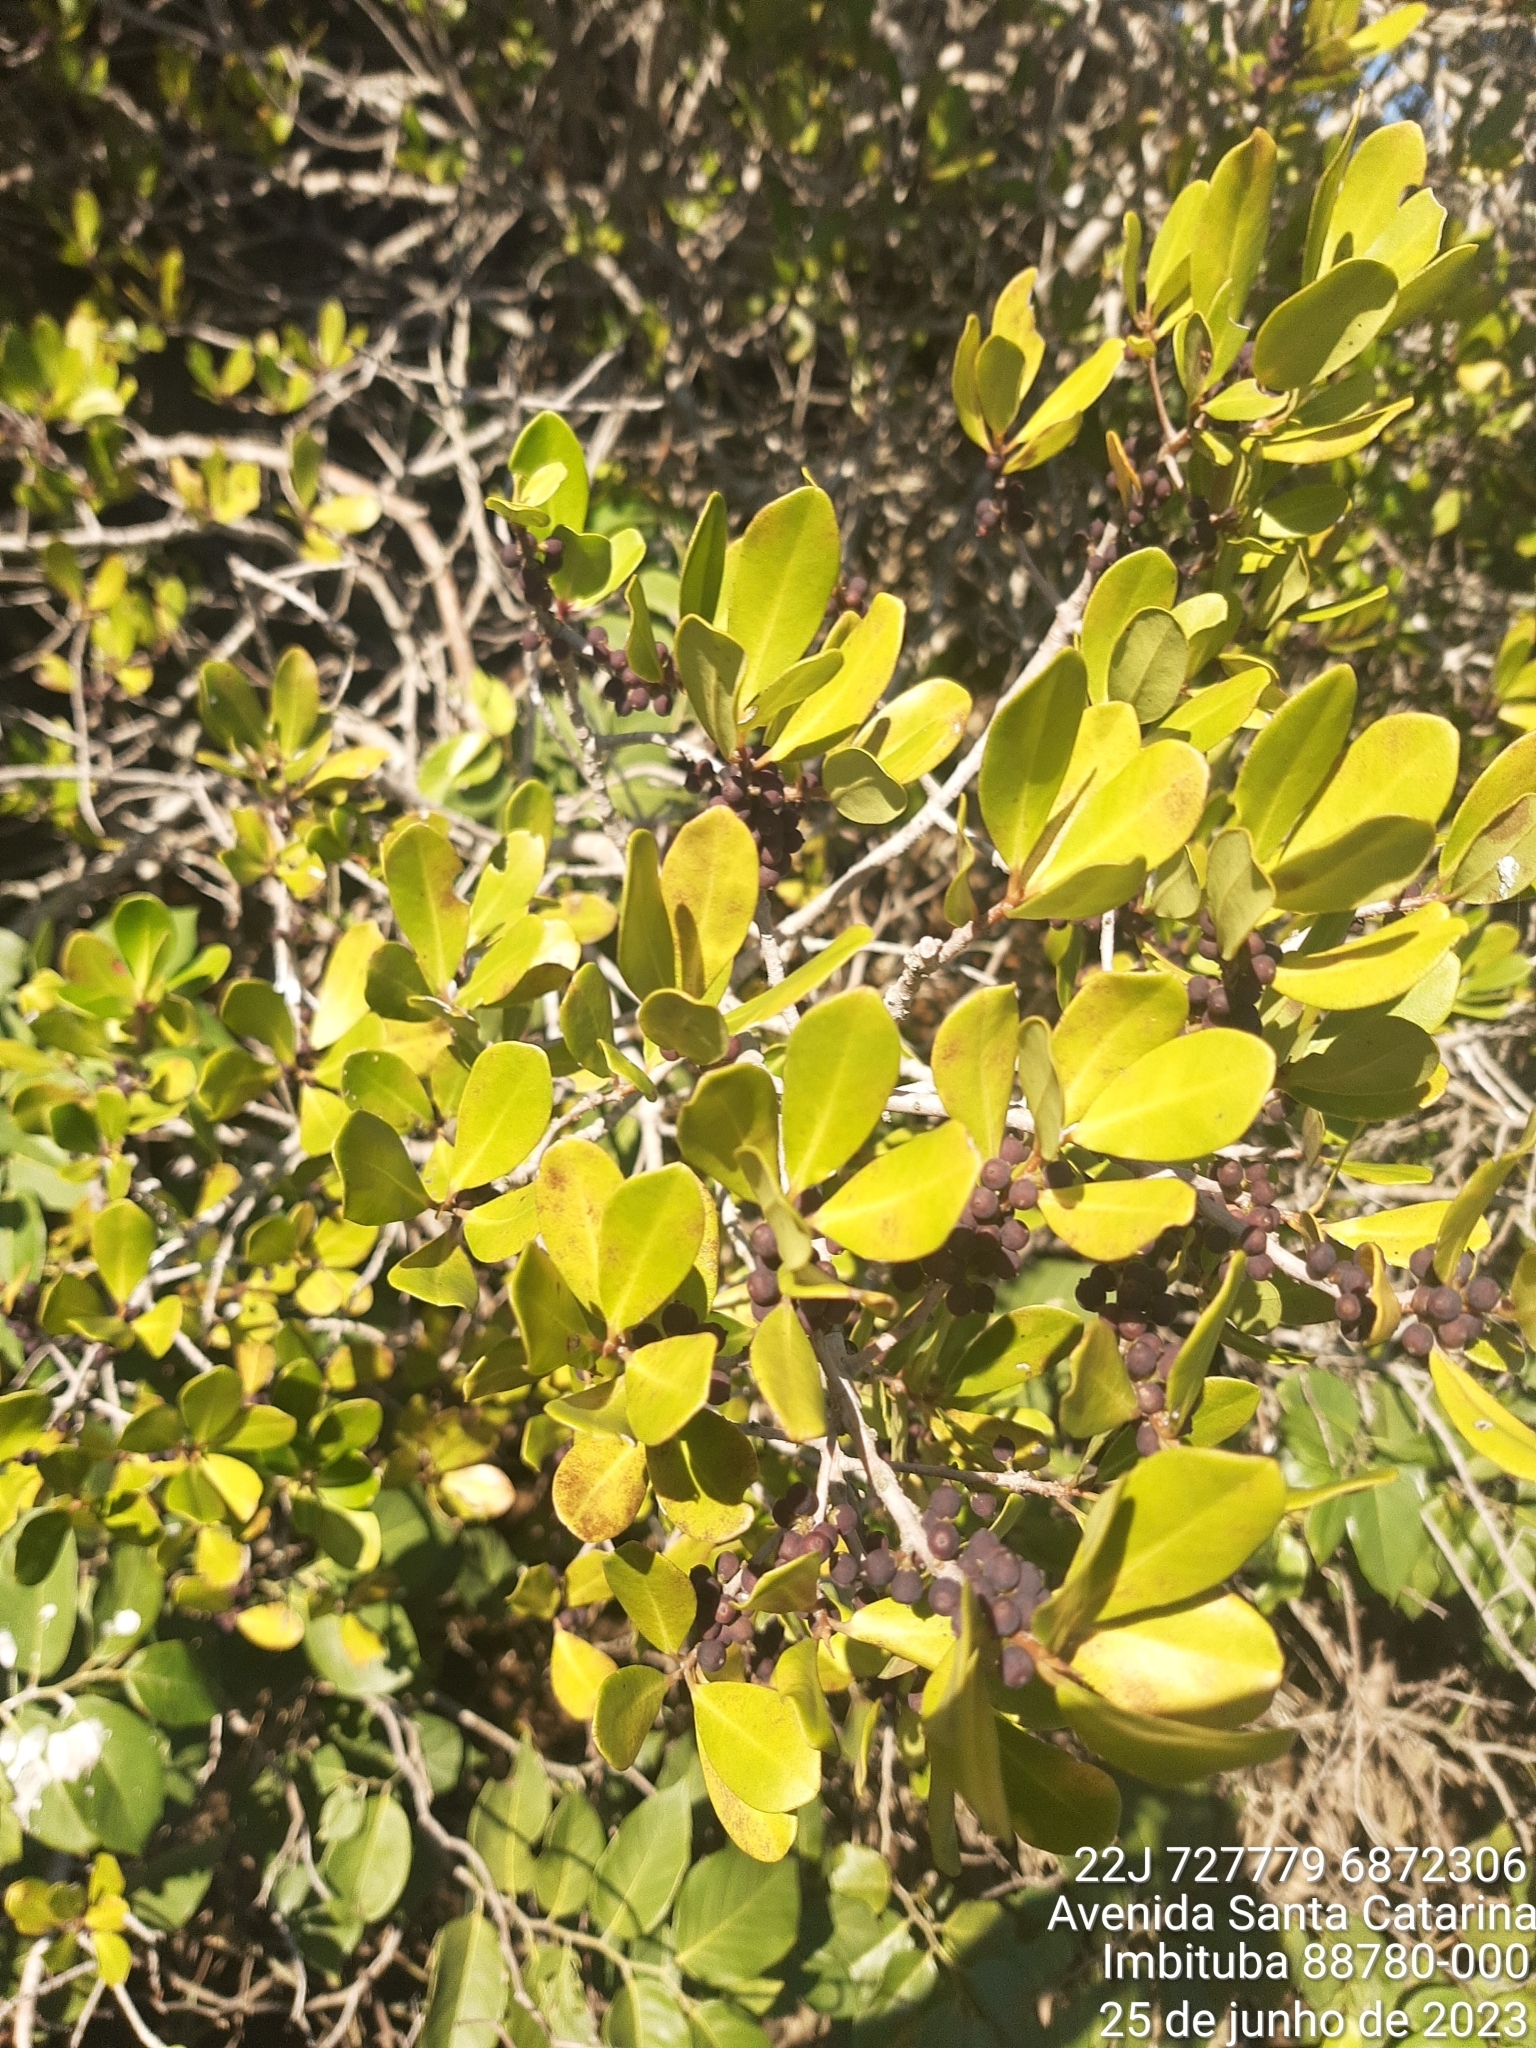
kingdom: Plantae
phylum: Tracheophyta
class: Magnoliopsida
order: Ericales
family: Primulaceae
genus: Myrsine
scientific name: Myrsine parvifolia
